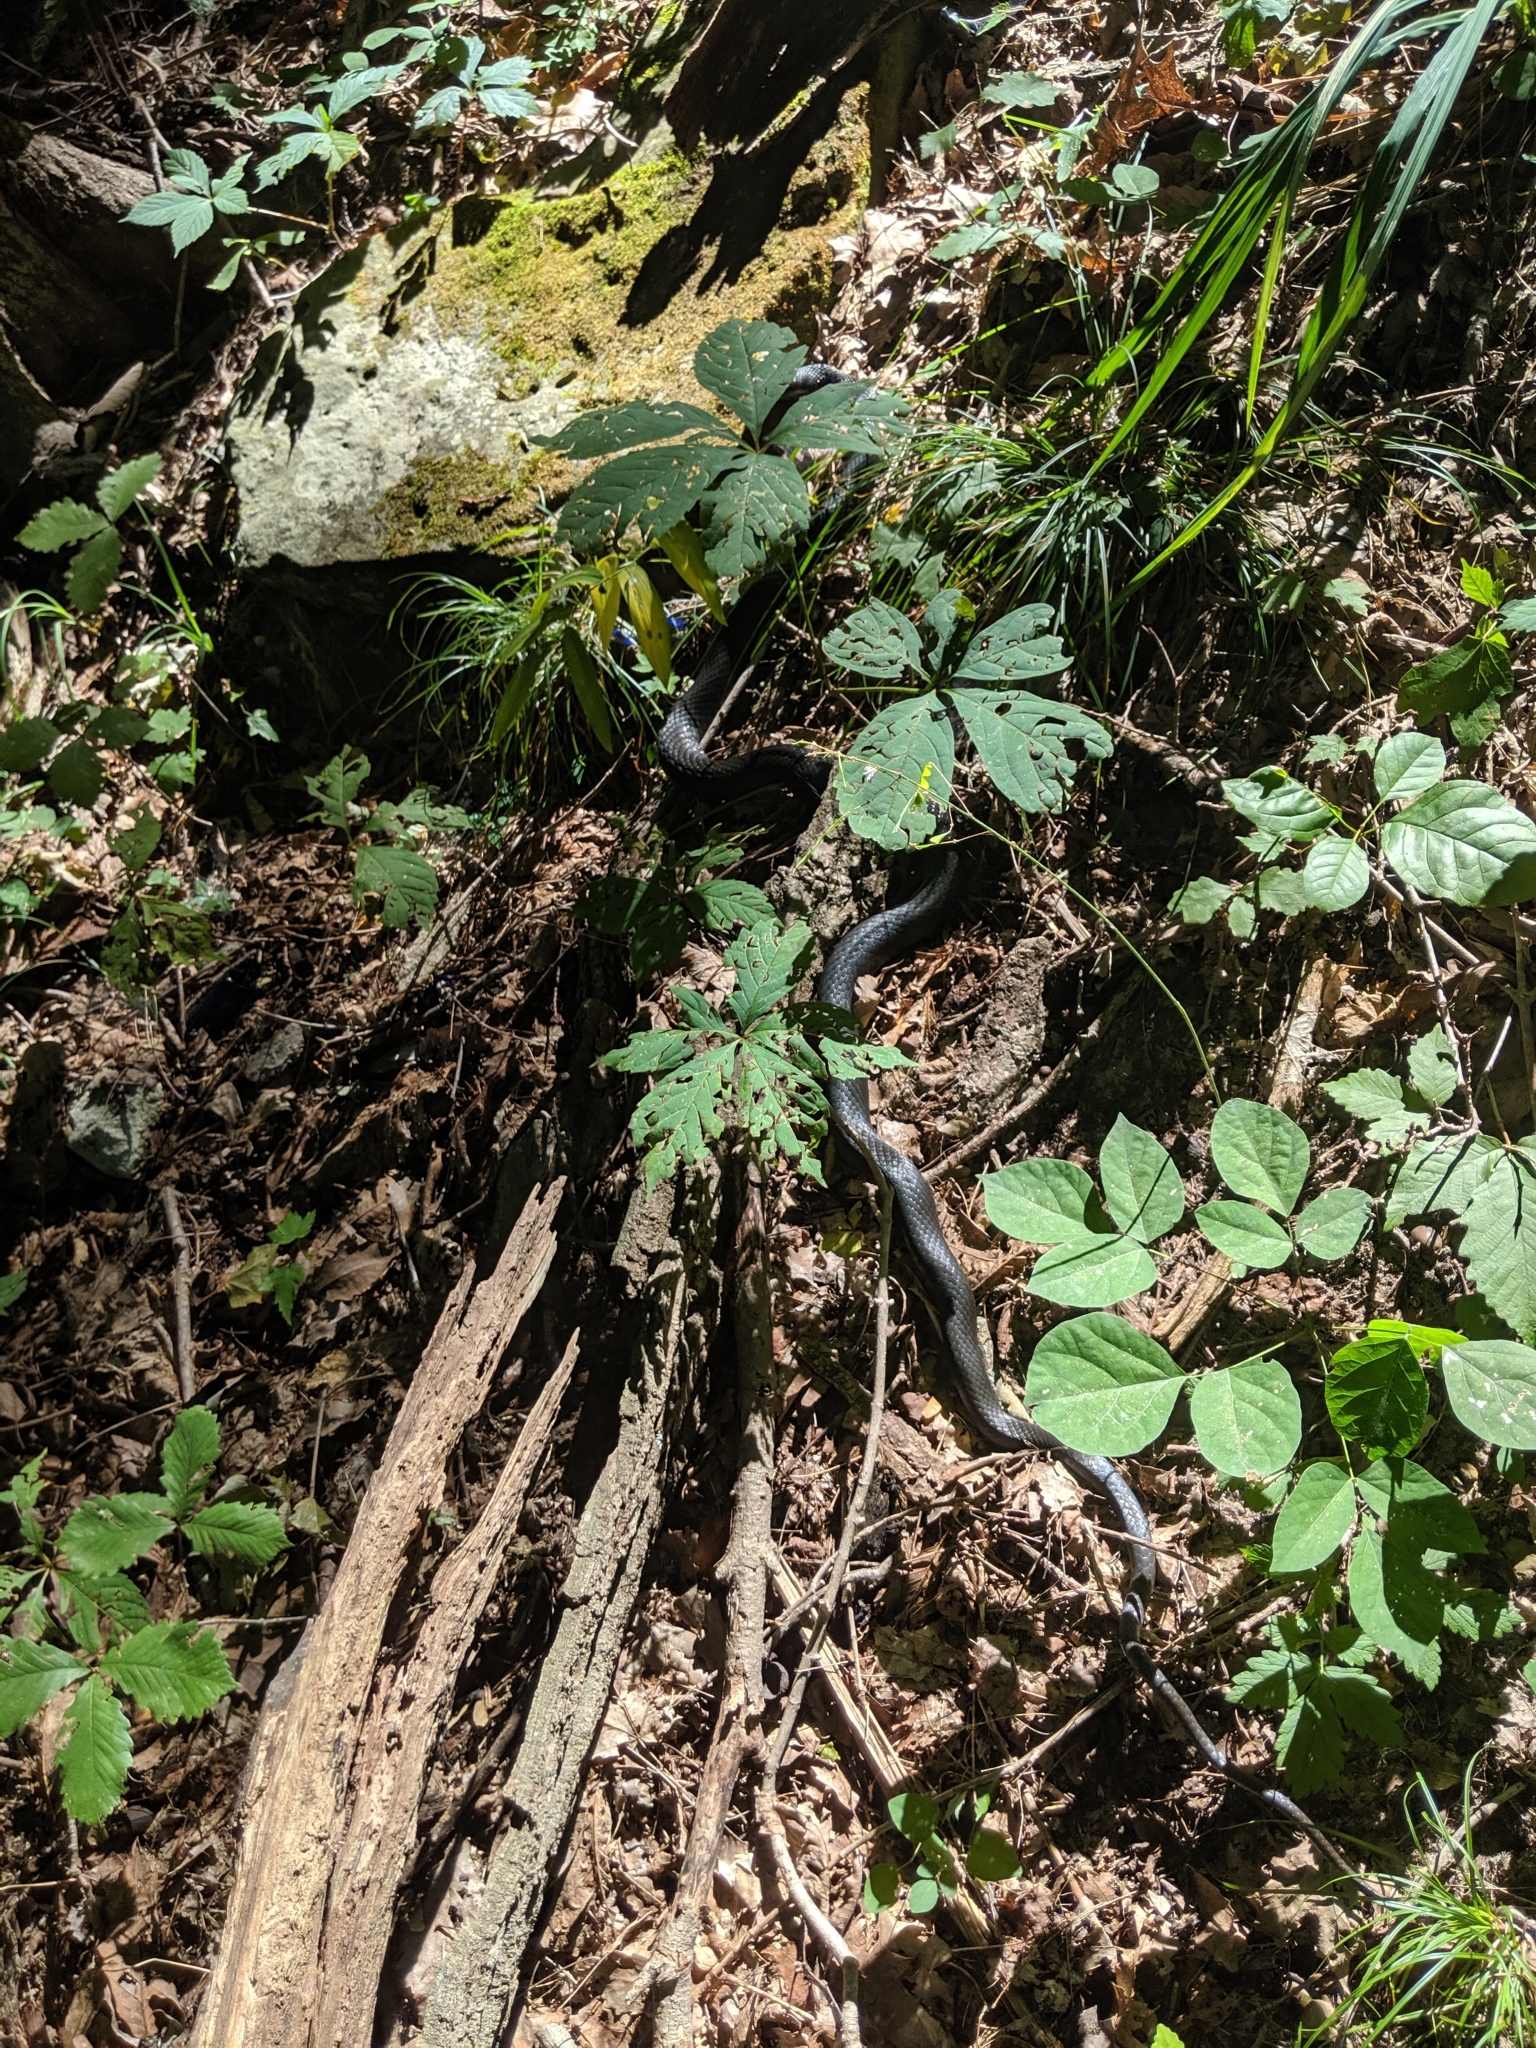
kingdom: Animalia
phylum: Chordata
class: Squamata
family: Colubridae
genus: Coluber
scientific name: Coluber constrictor
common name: Eastern racer
